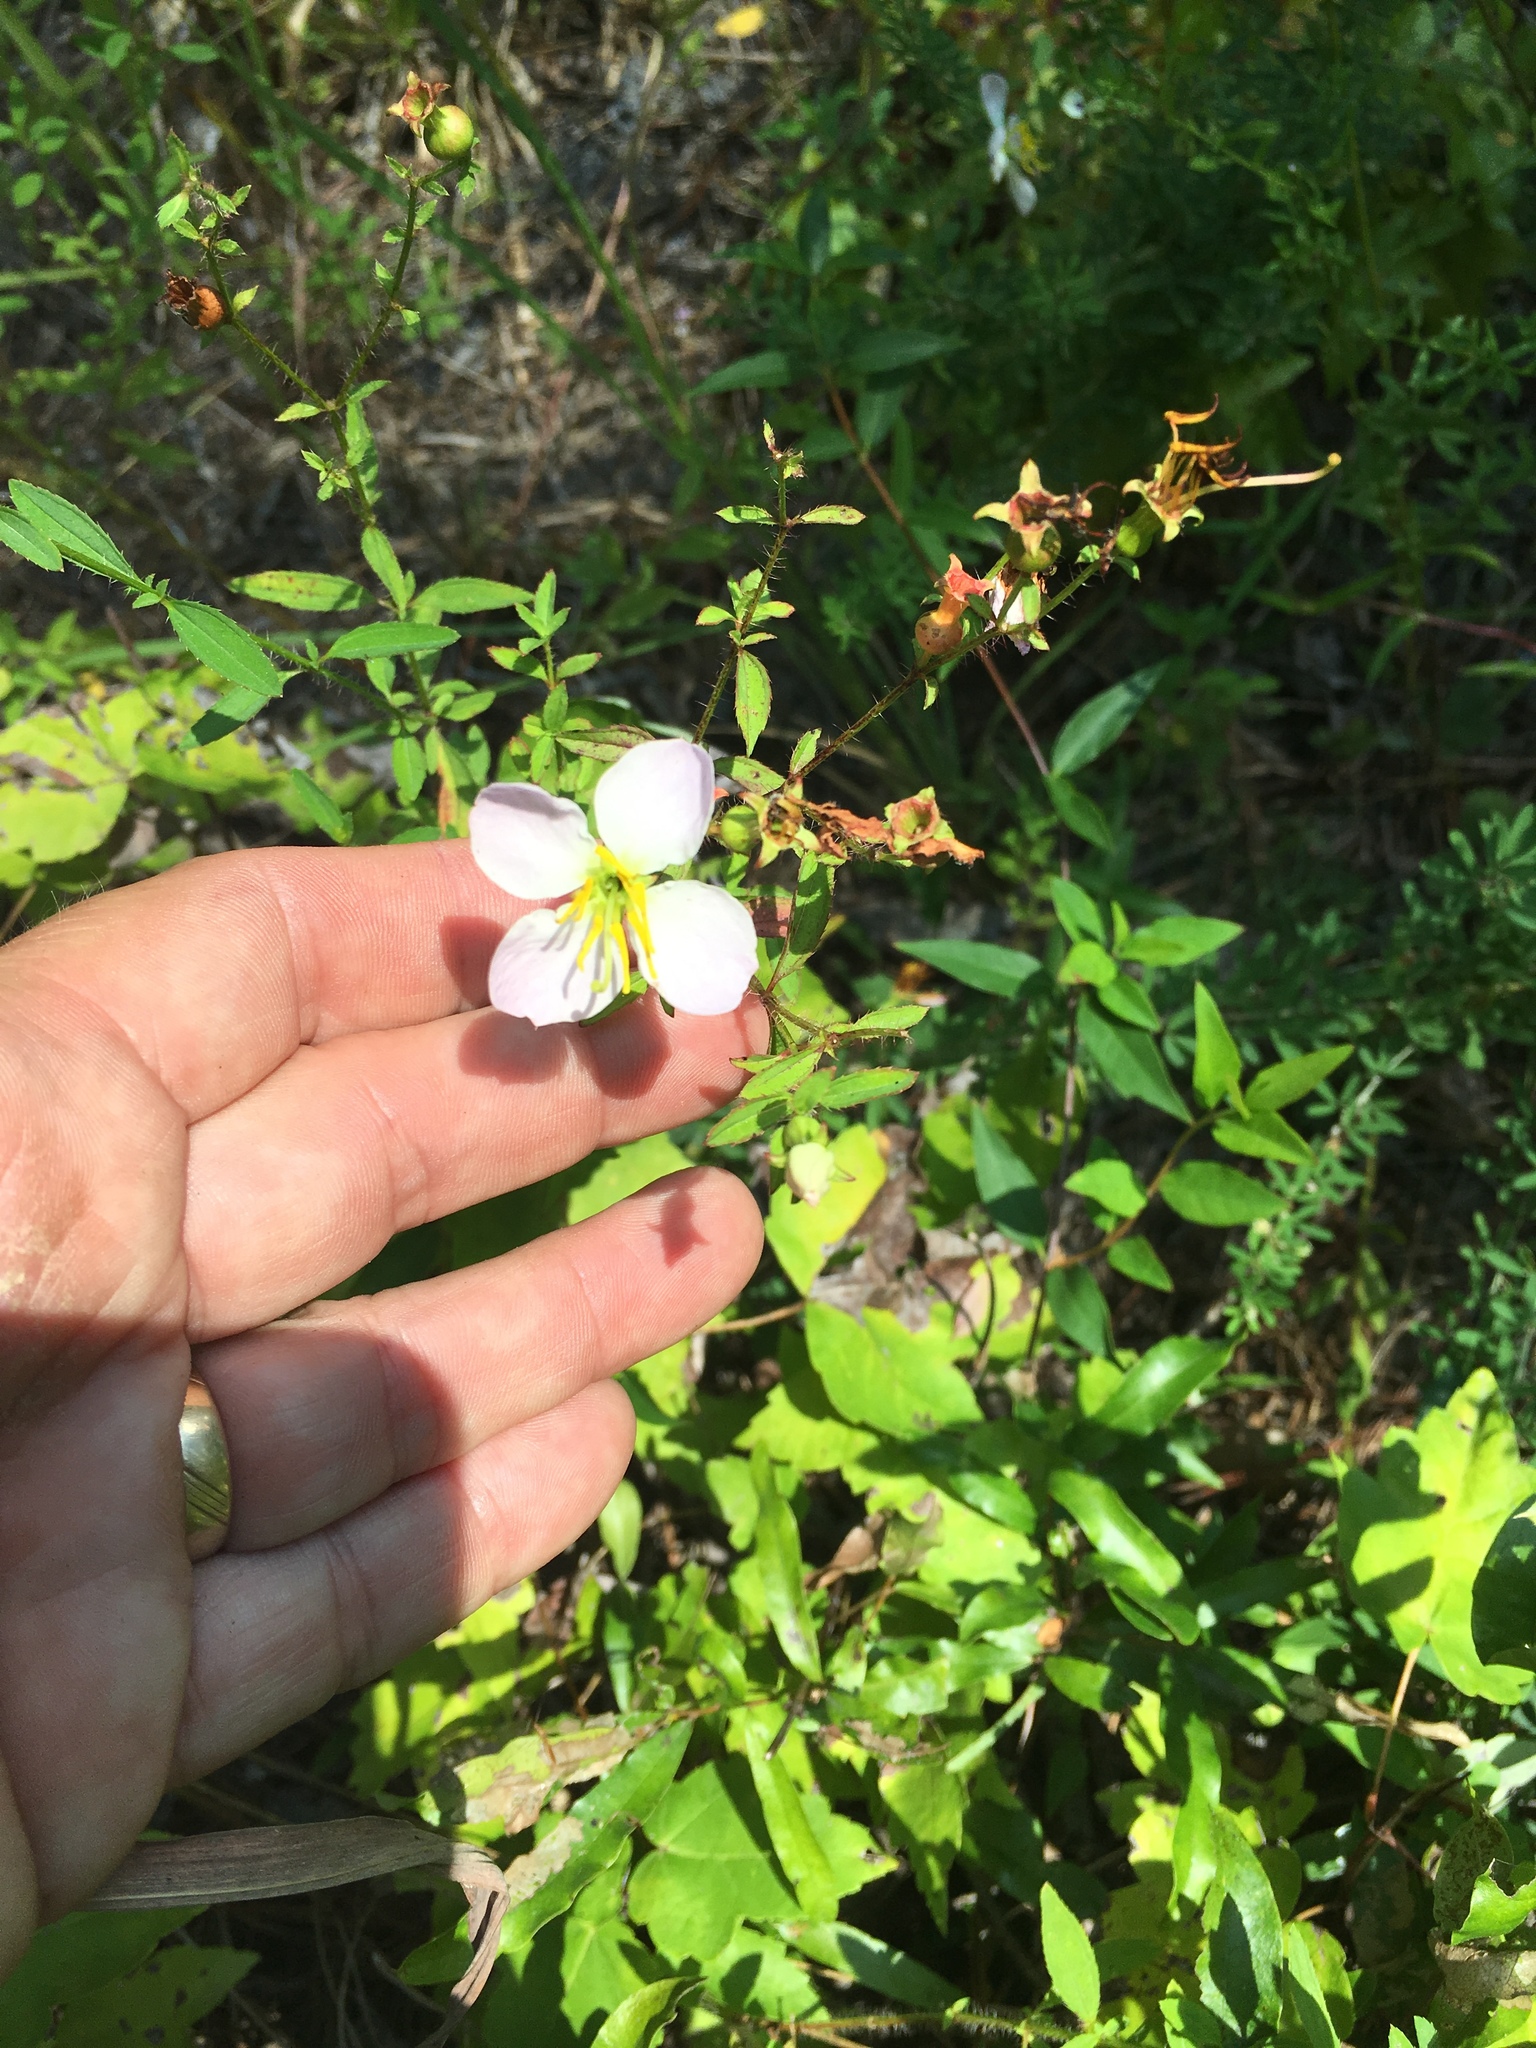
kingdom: Plantae
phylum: Tracheophyta
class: Magnoliopsida
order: Myrtales
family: Melastomataceae
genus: Rhexia
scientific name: Rhexia mariana
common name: Dull meadow-pitcher
